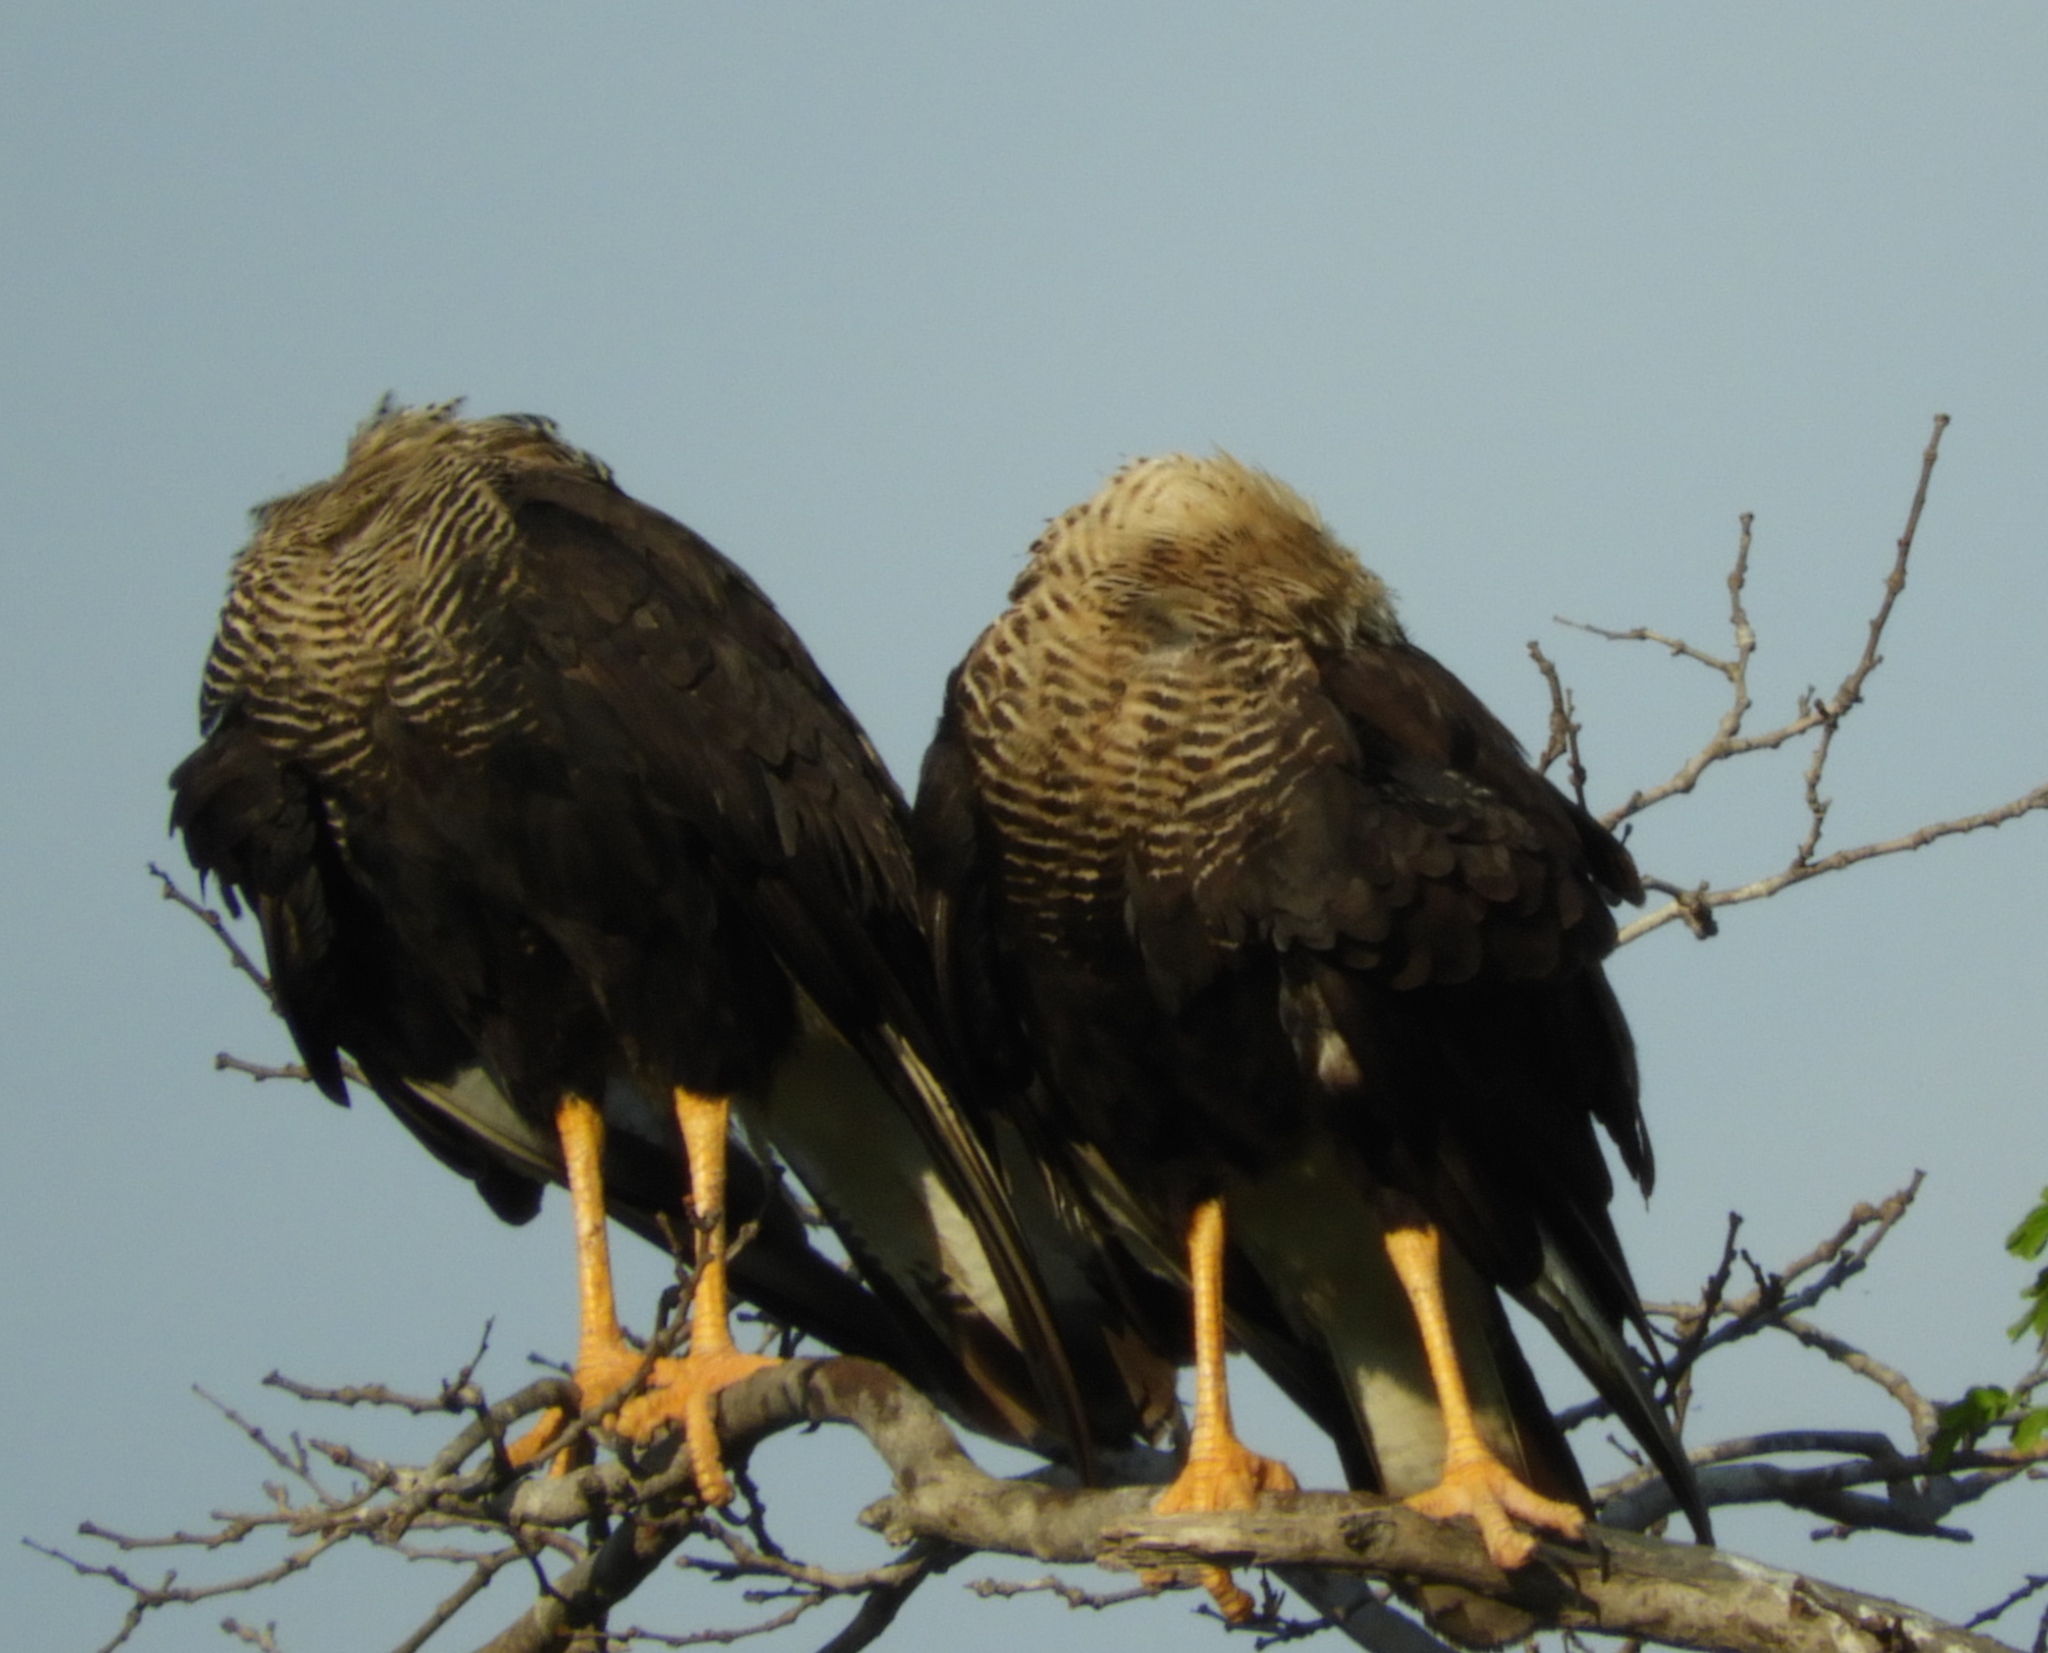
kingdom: Animalia
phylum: Chordata
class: Aves
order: Falconiformes
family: Falconidae
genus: Caracara
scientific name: Caracara plancus
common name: Southern caracara
